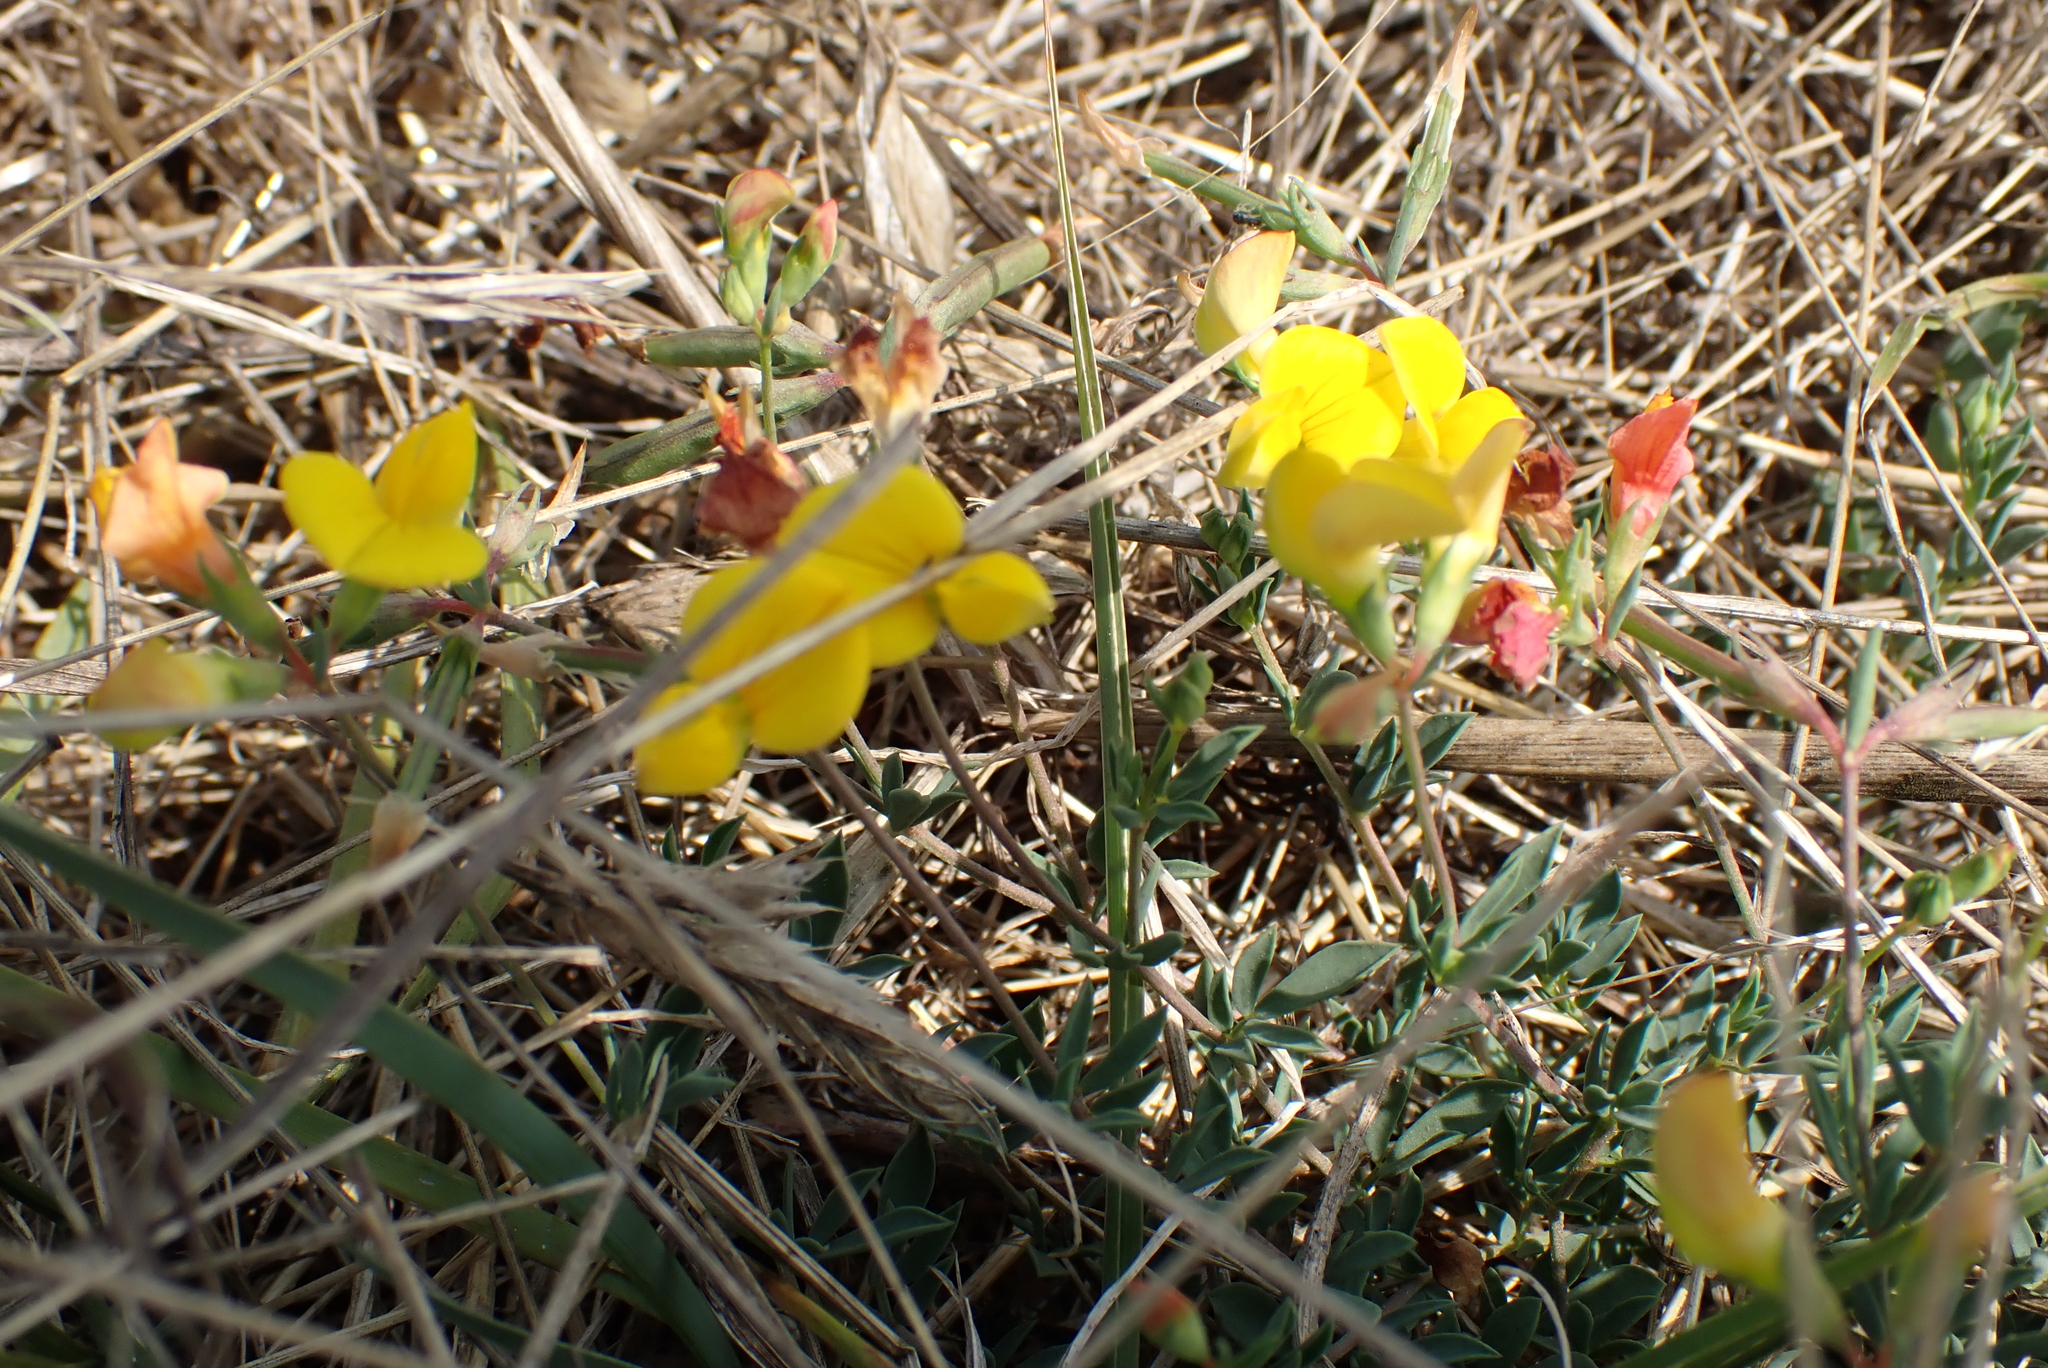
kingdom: Plantae
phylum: Tracheophyta
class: Magnoliopsida
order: Fabales
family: Fabaceae
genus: Lotus
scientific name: Lotus corniculatus
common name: Common bird's-foot-trefoil
